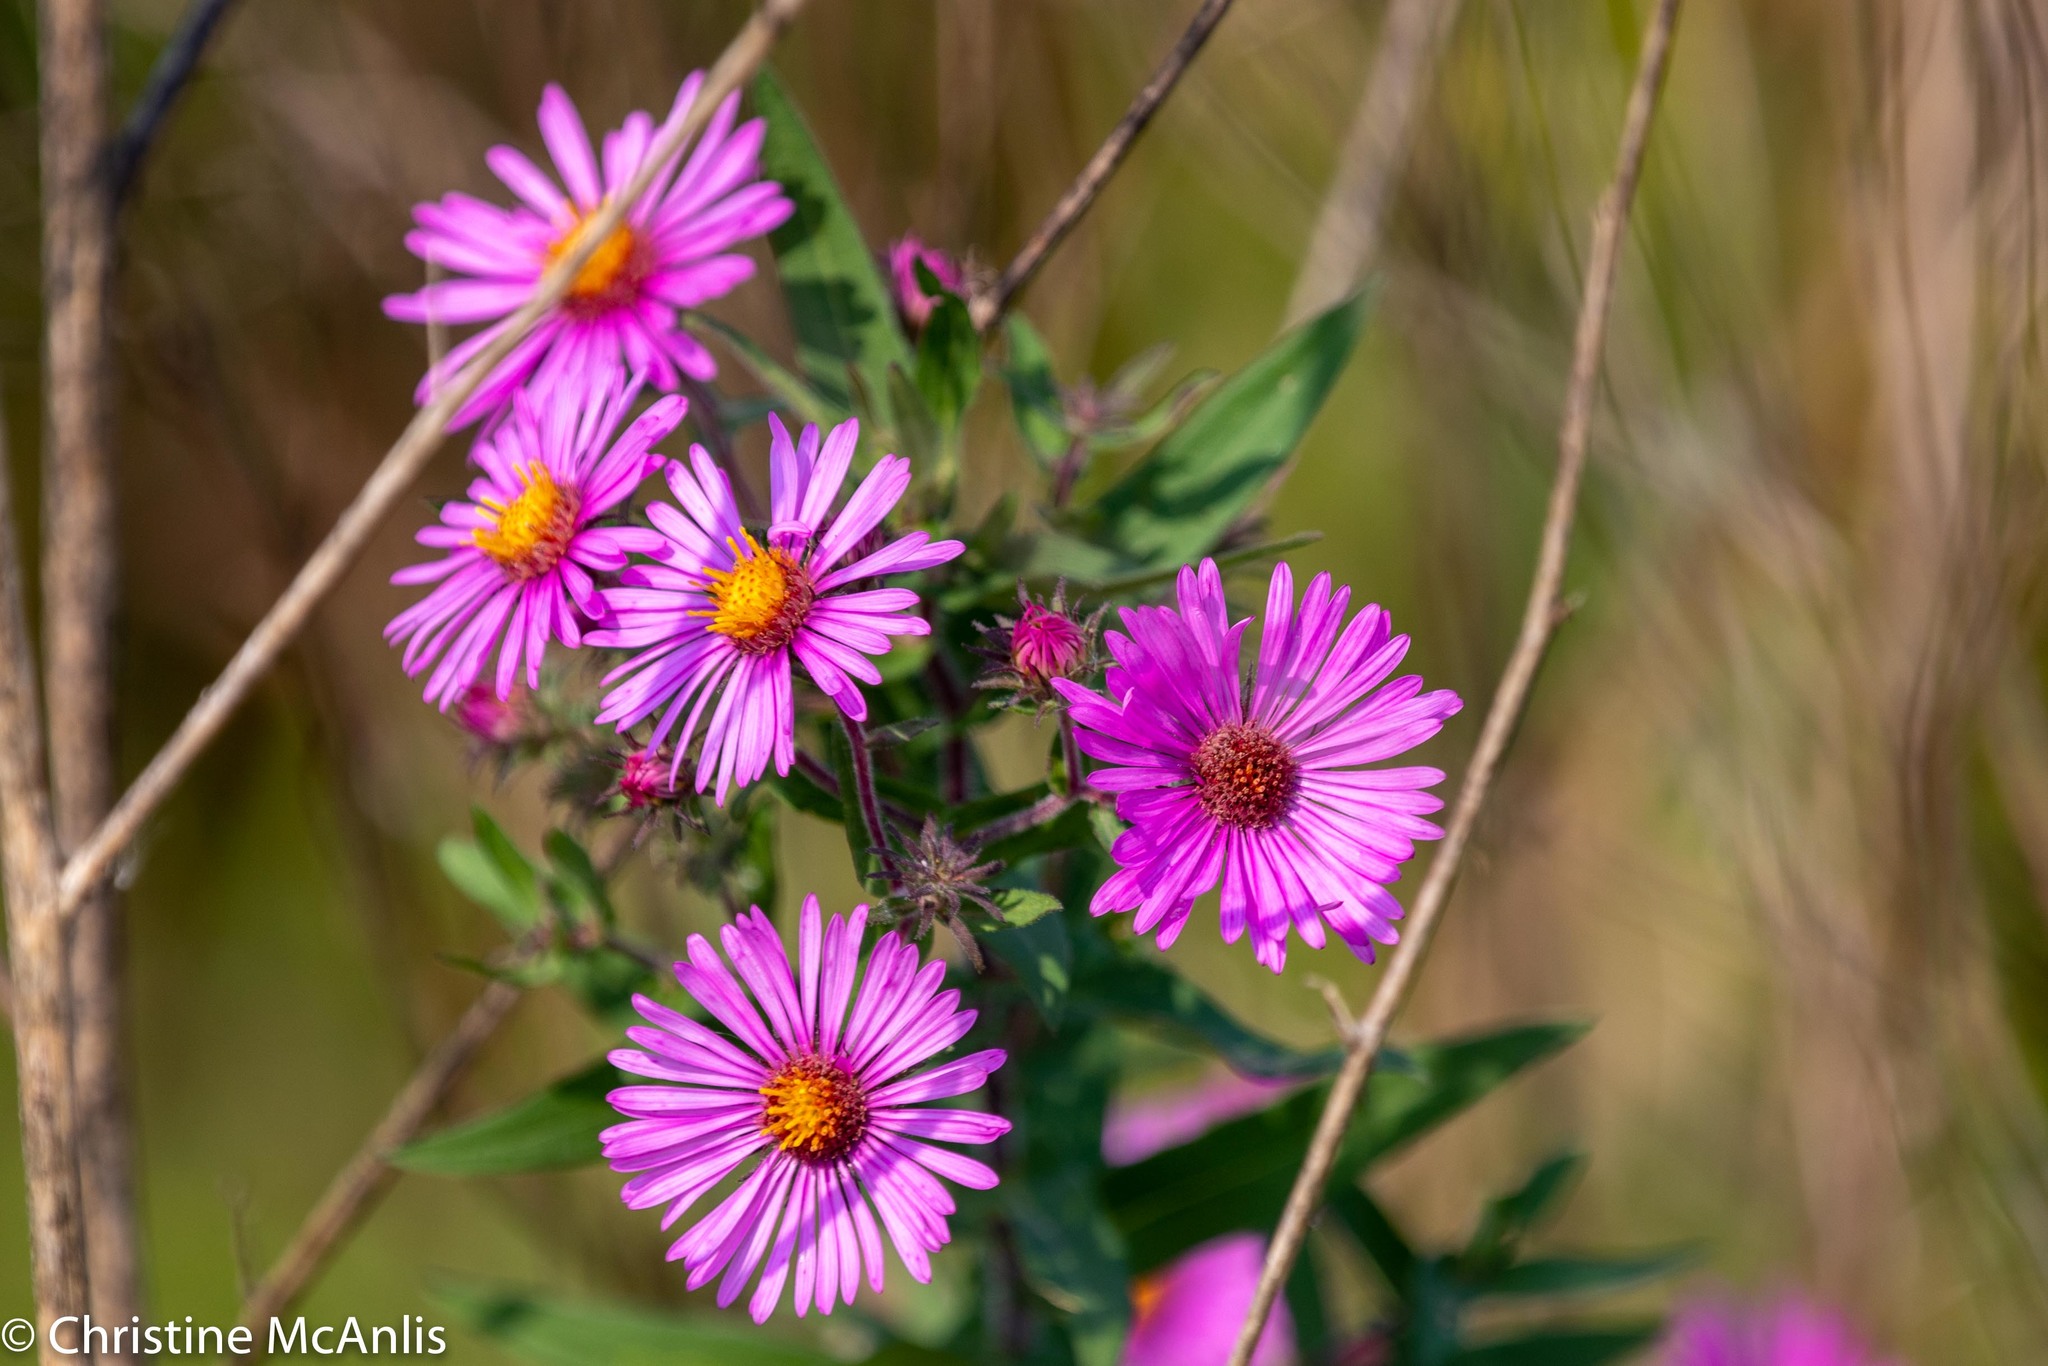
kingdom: Plantae
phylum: Tracheophyta
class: Magnoliopsida
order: Asterales
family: Asteraceae
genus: Symphyotrichum
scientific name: Symphyotrichum novae-angliae
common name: Michaelmas daisy
